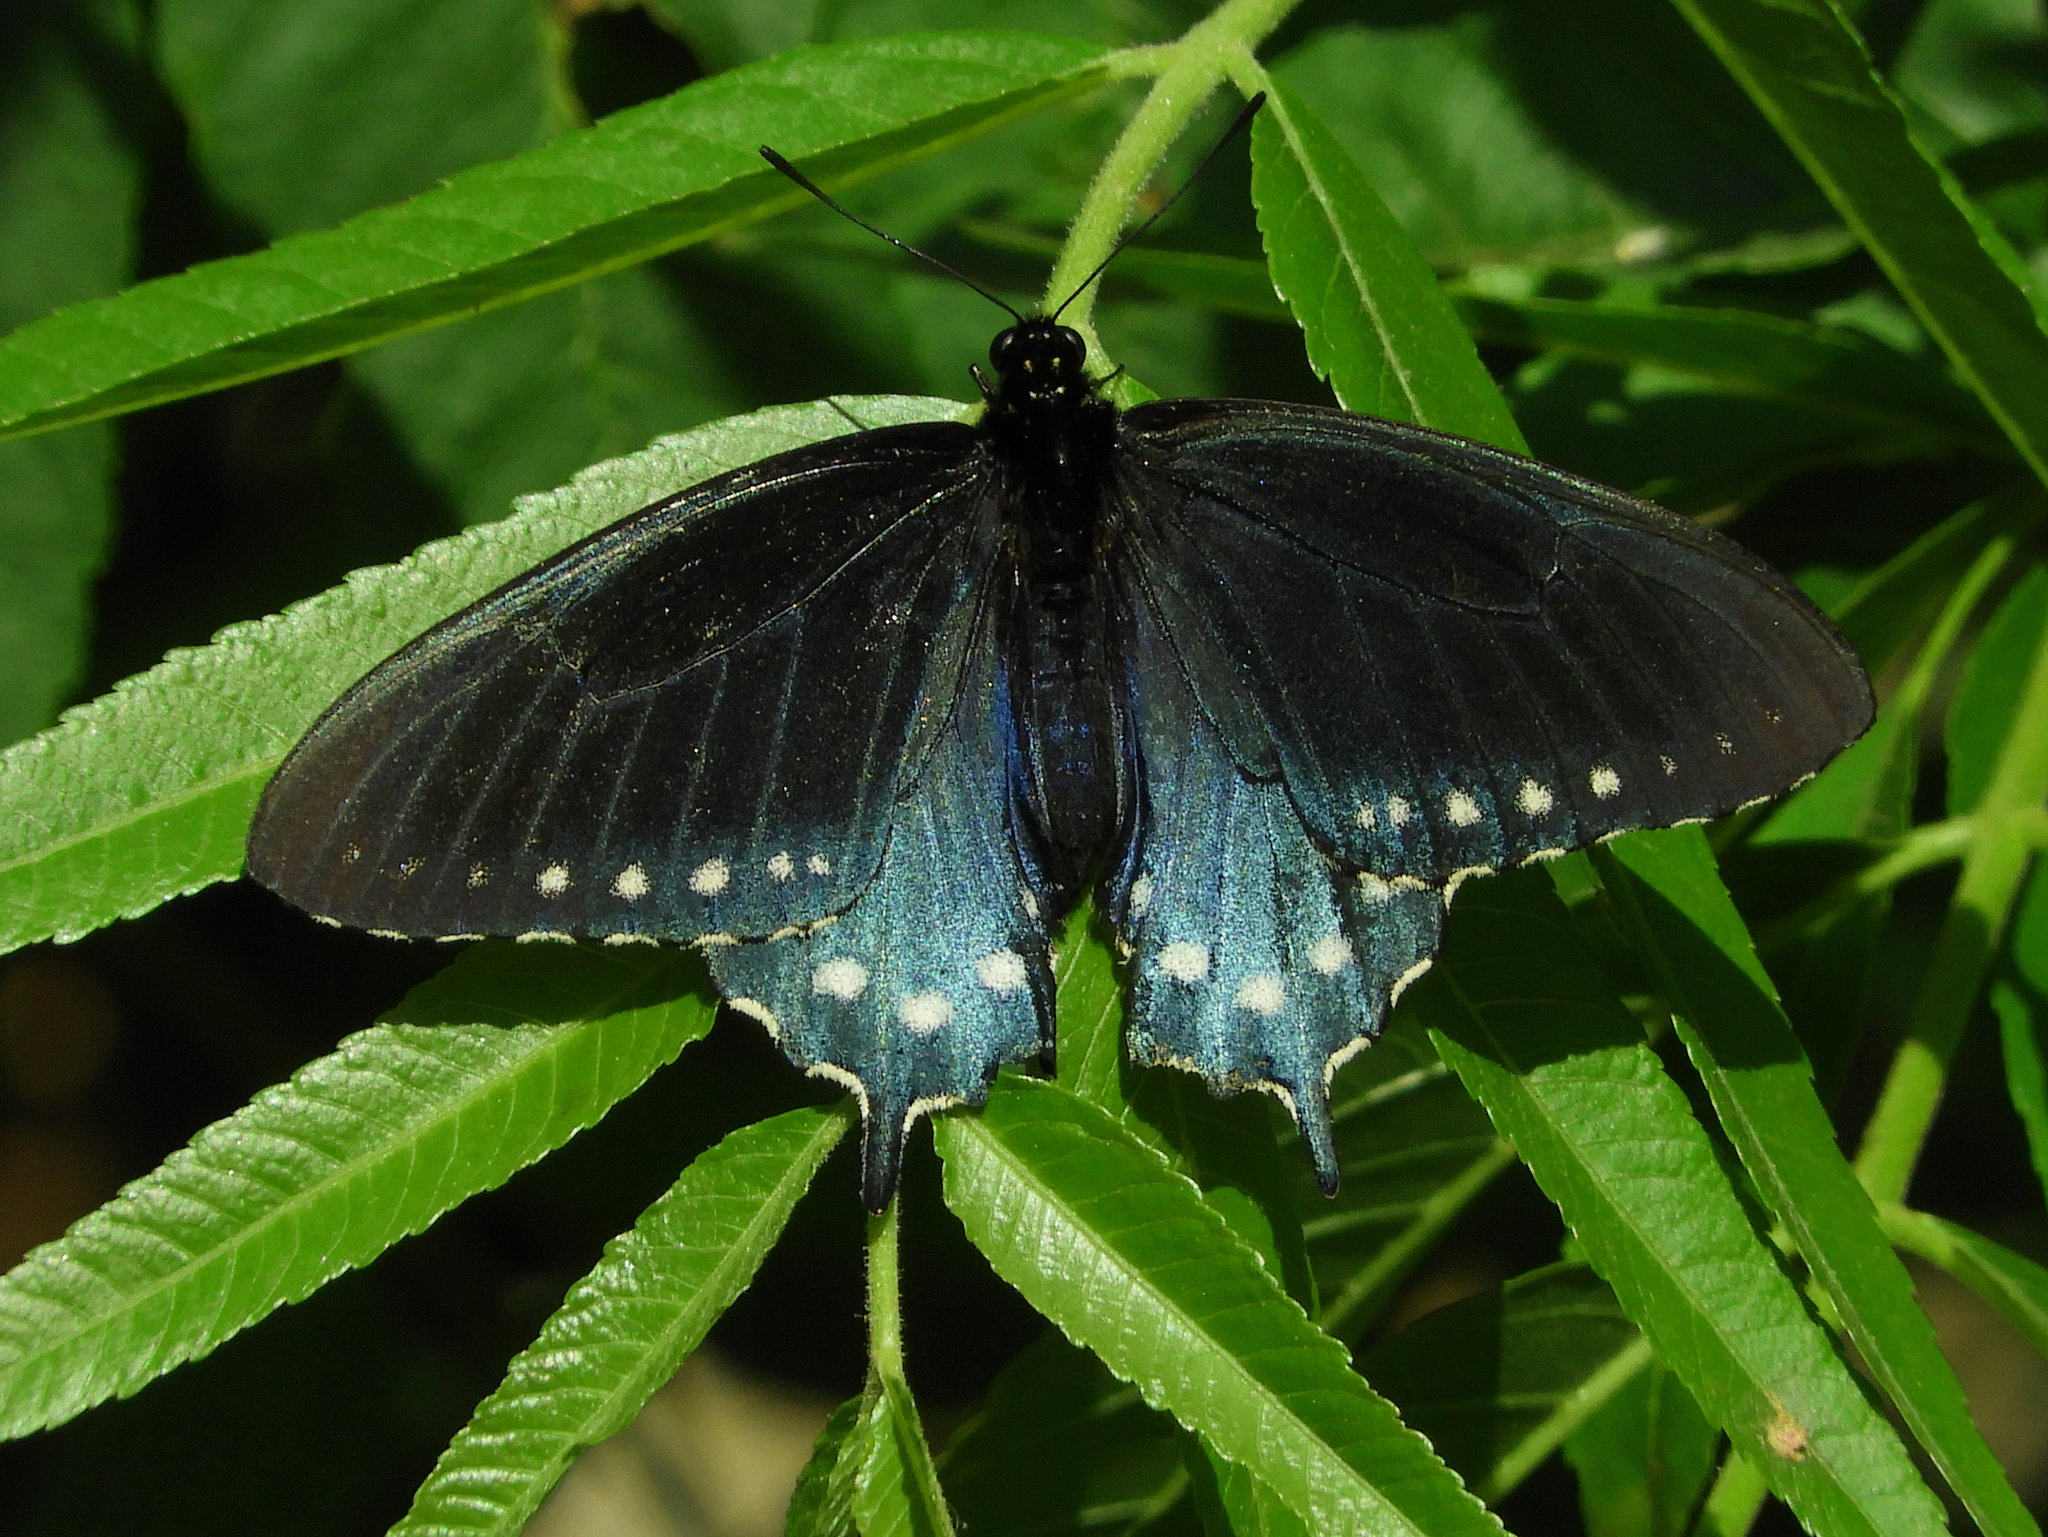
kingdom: Animalia
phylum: Arthropoda
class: Insecta
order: Lepidoptera
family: Papilionidae
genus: Battus
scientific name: Battus philenor
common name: Pipevine swallowtail
